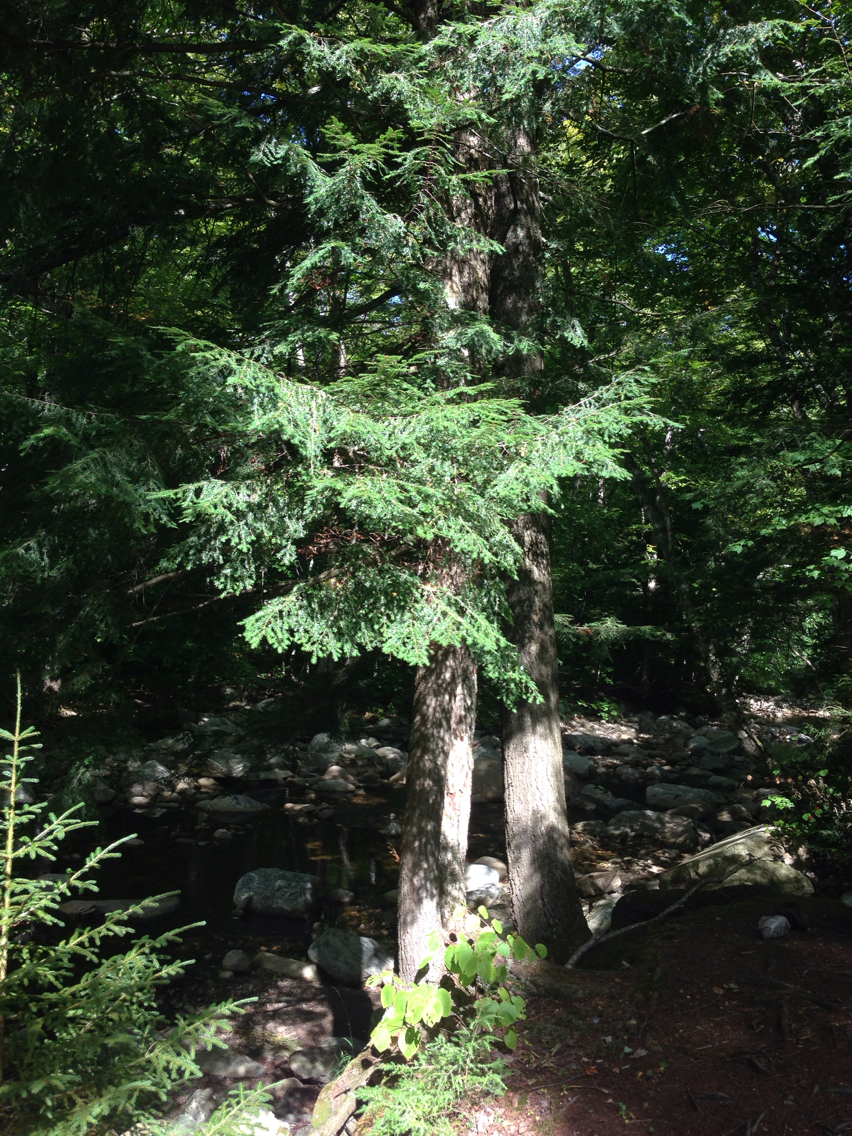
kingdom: Plantae
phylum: Tracheophyta
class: Pinopsida
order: Pinales
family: Pinaceae
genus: Tsuga
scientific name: Tsuga canadensis
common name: Eastern hemlock
